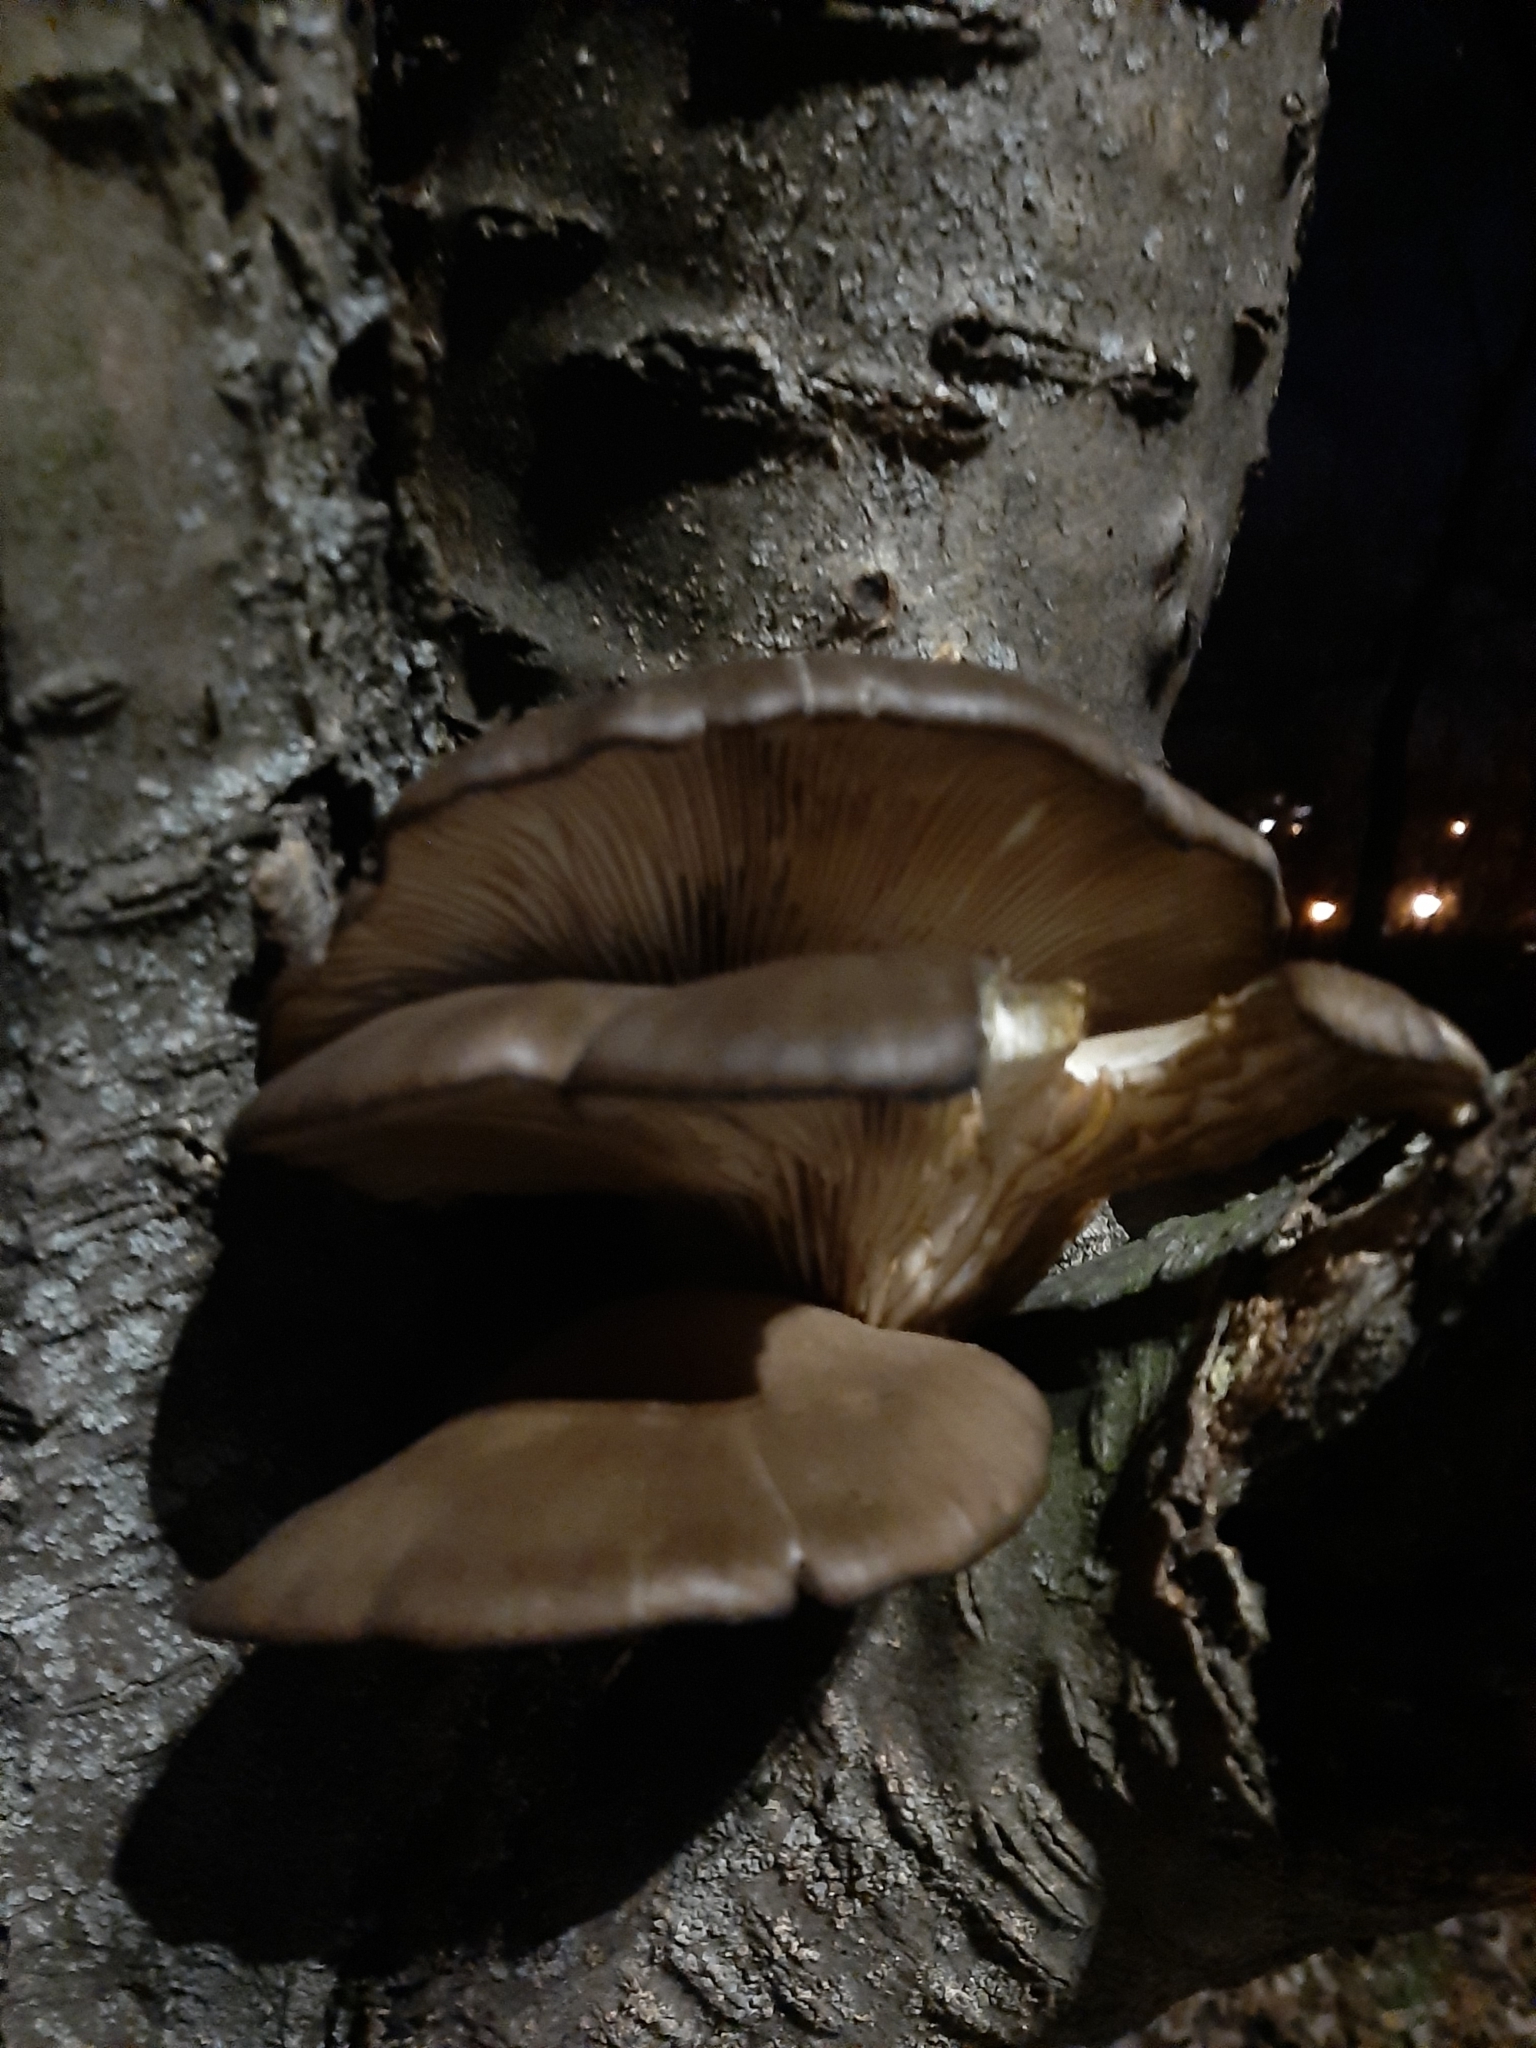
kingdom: Fungi
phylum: Basidiomycota
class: Agaricomycetes
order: Agaricales
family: Pleurotaceae
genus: Pleurotus
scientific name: Pleurotus ostreatus
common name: Oyster mushroom
